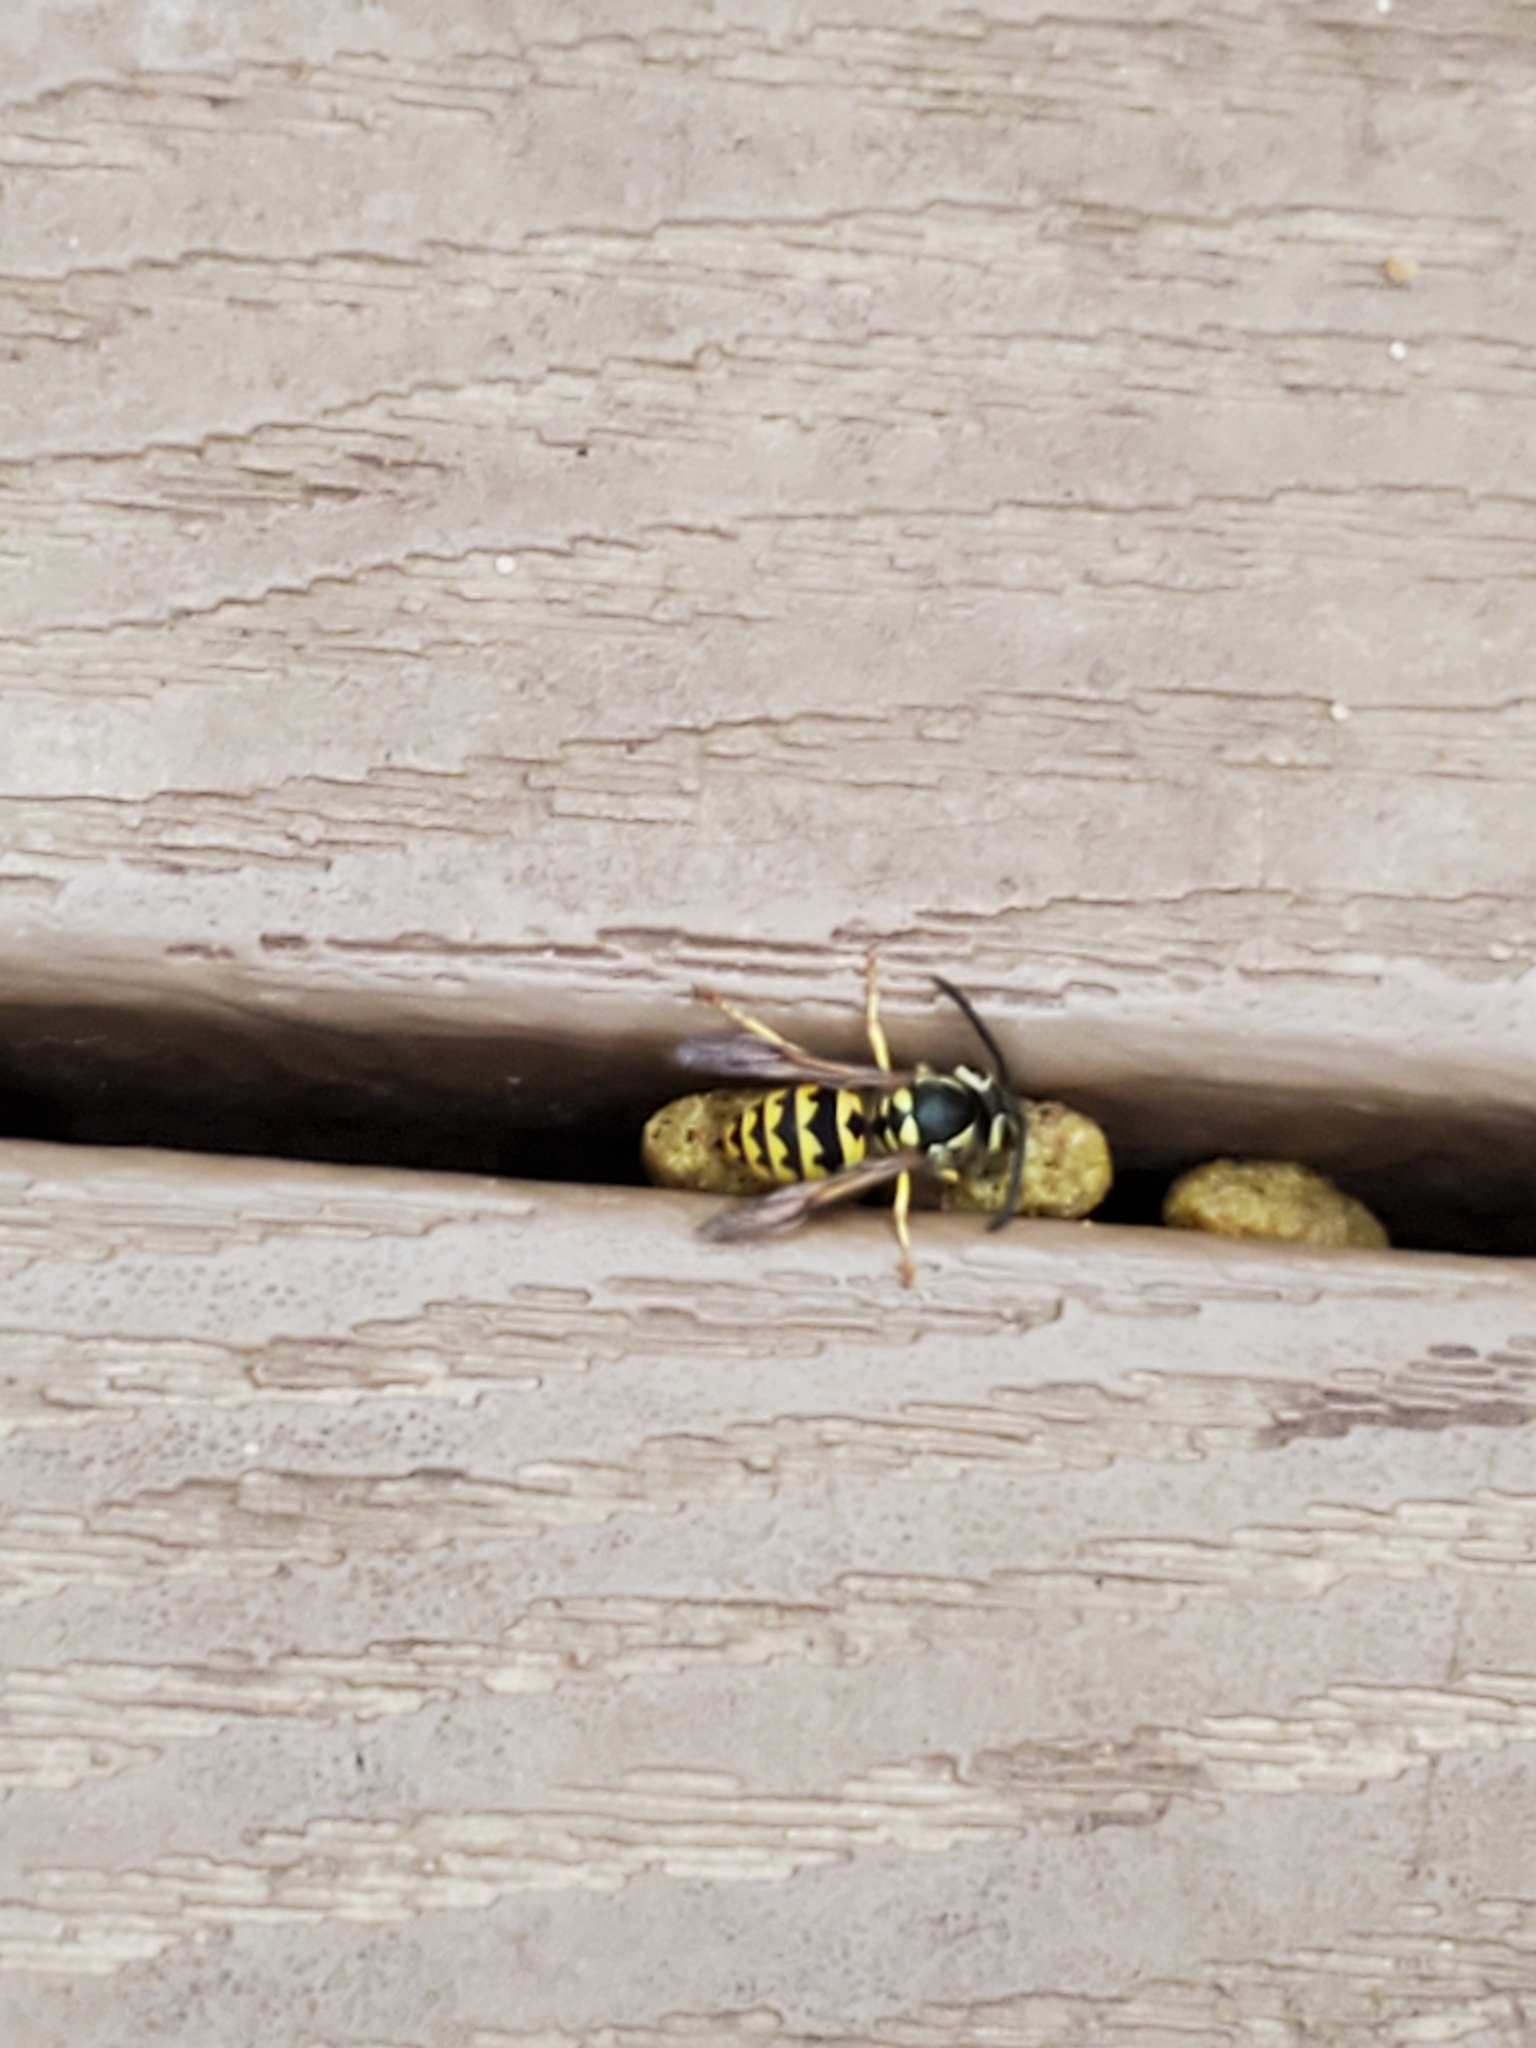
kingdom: Animalia
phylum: Arthropoda
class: Insecta
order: Hymenoptera
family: Vespidae
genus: Vespula
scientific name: Vespula pensylvanica
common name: Western yellowjacket
